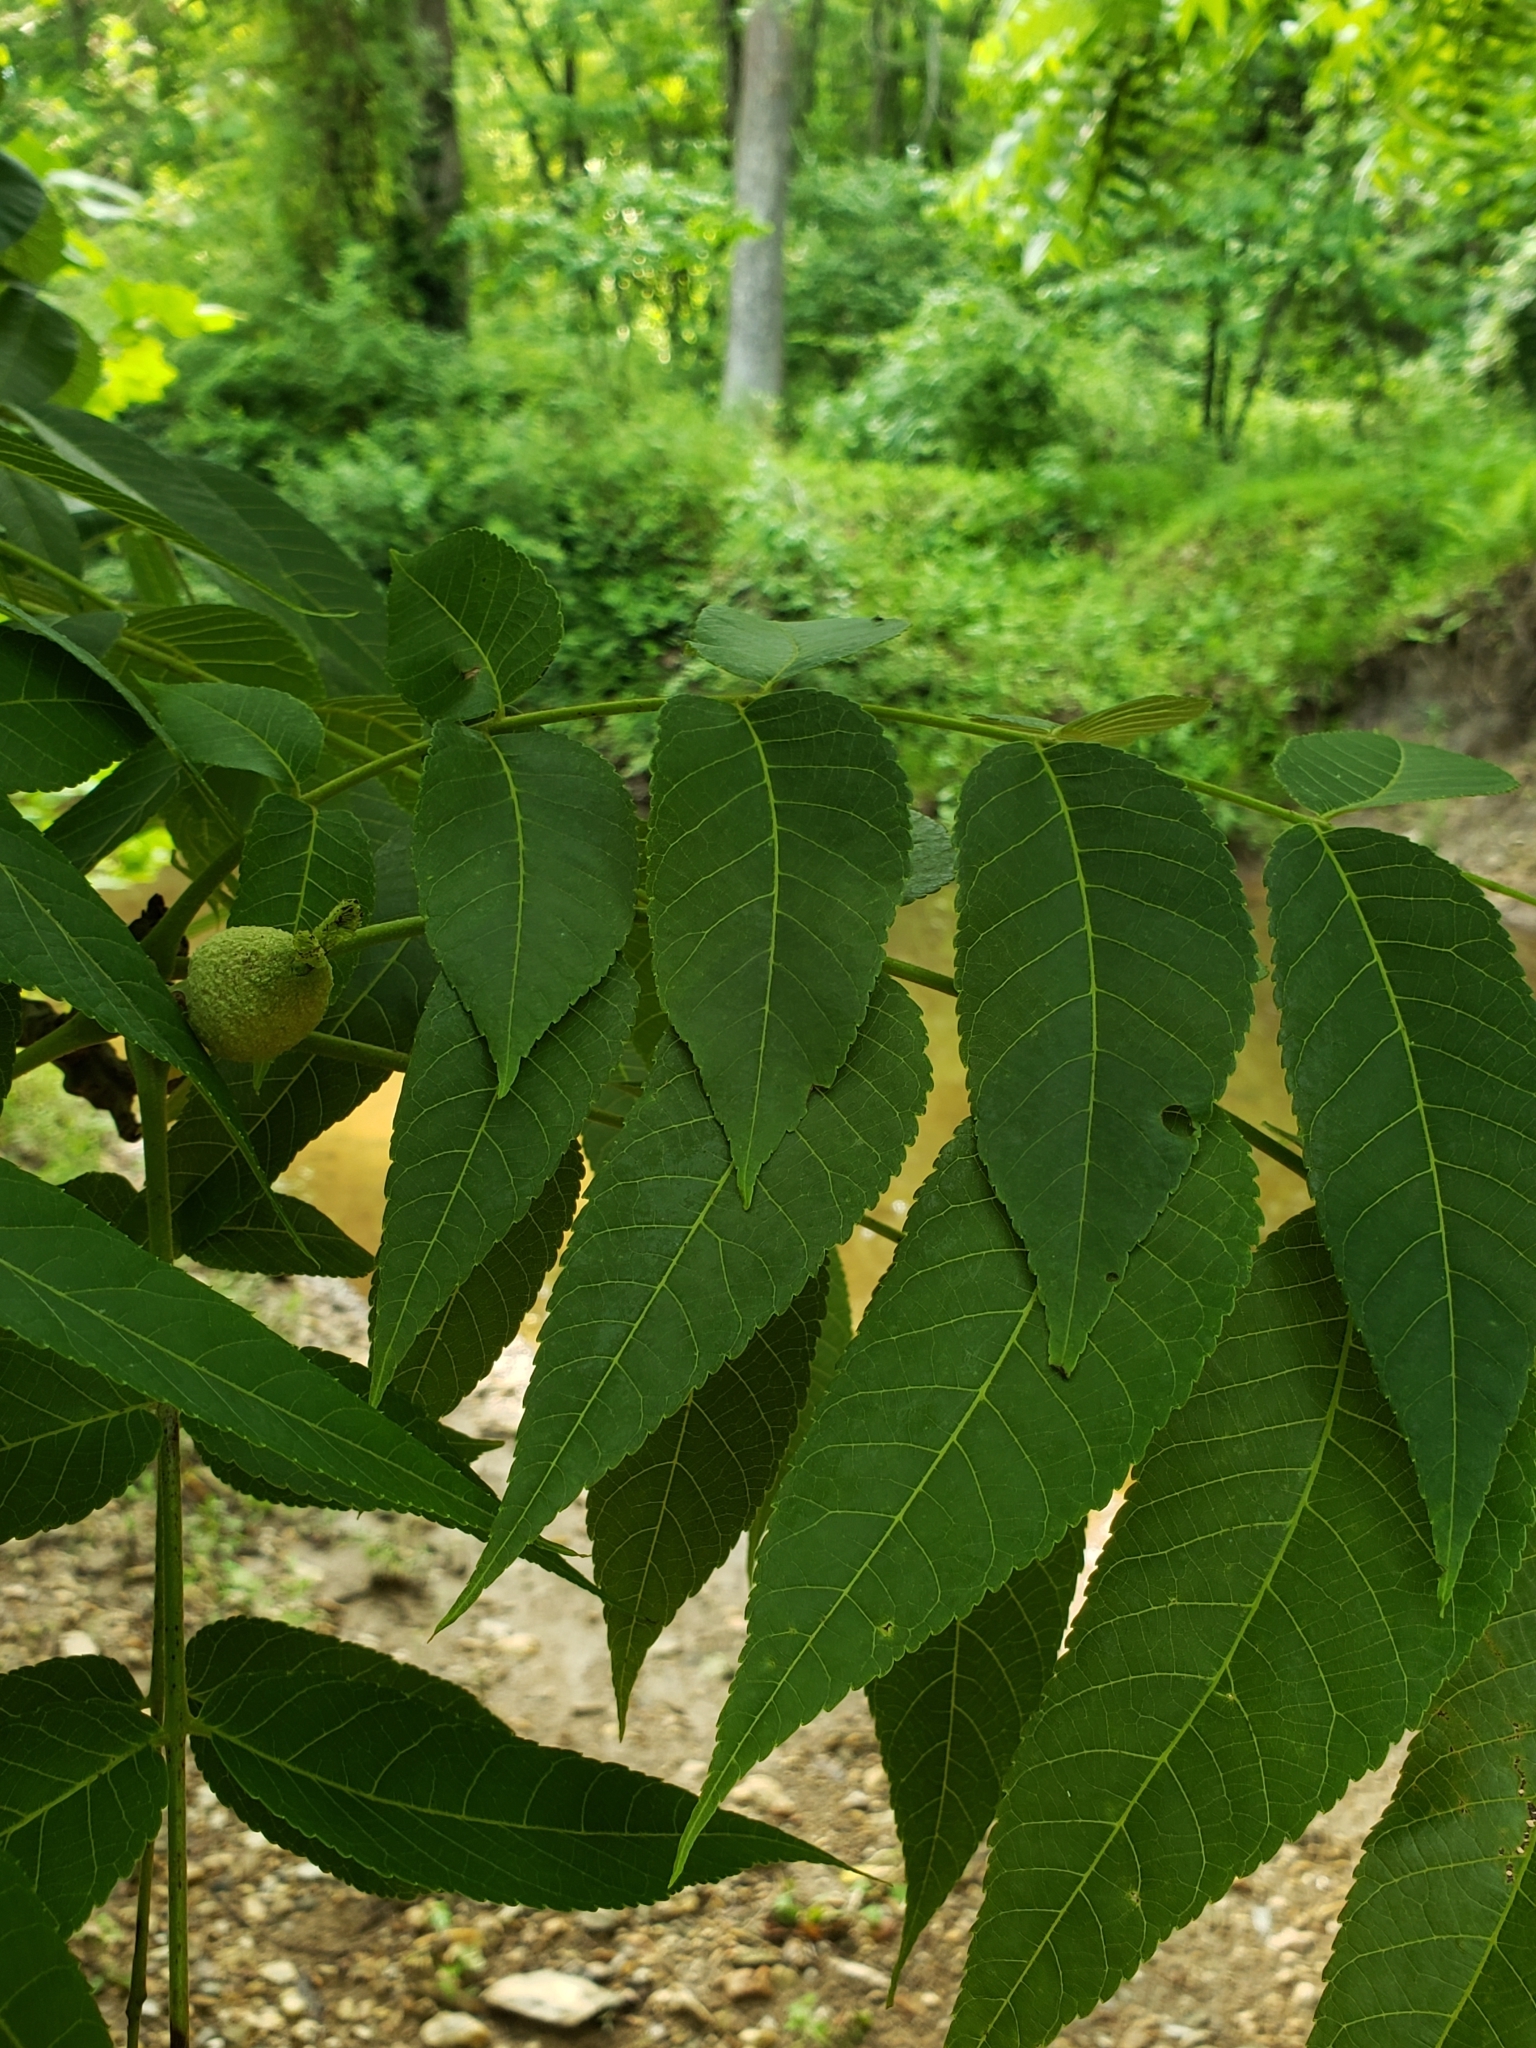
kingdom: Plantae
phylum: Tracheophyta
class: Magnoliopsida
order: Fagales
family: Juglandaceae
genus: Juglans
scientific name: Juglans nigra
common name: Black walnut
